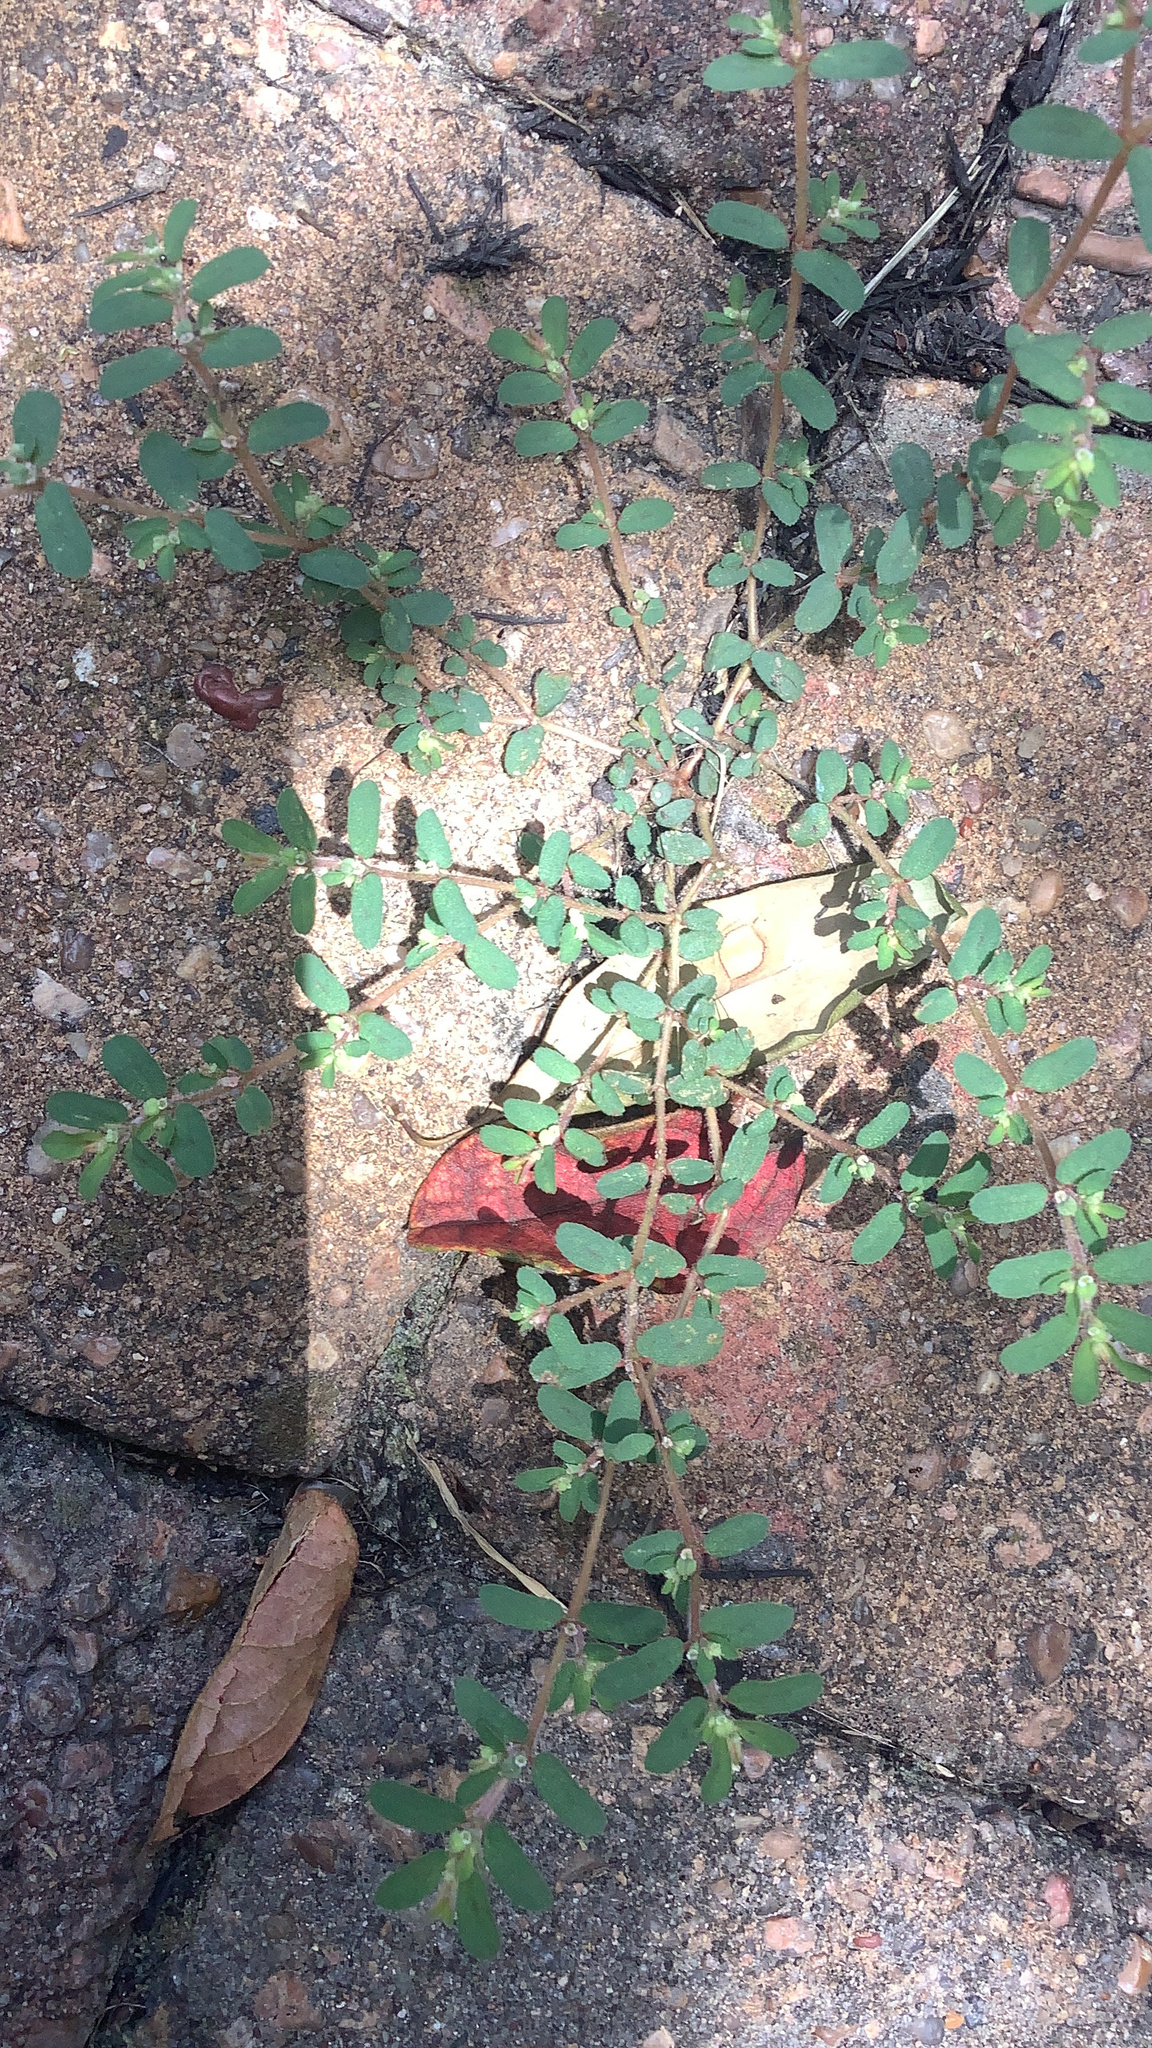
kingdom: Plantae
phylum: Tracheophyta
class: Magnoliopsida
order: Malpighiales
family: Euphorbiaceae
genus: Euphorbia
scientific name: Euphorbia maculata
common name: Spotted spurge
